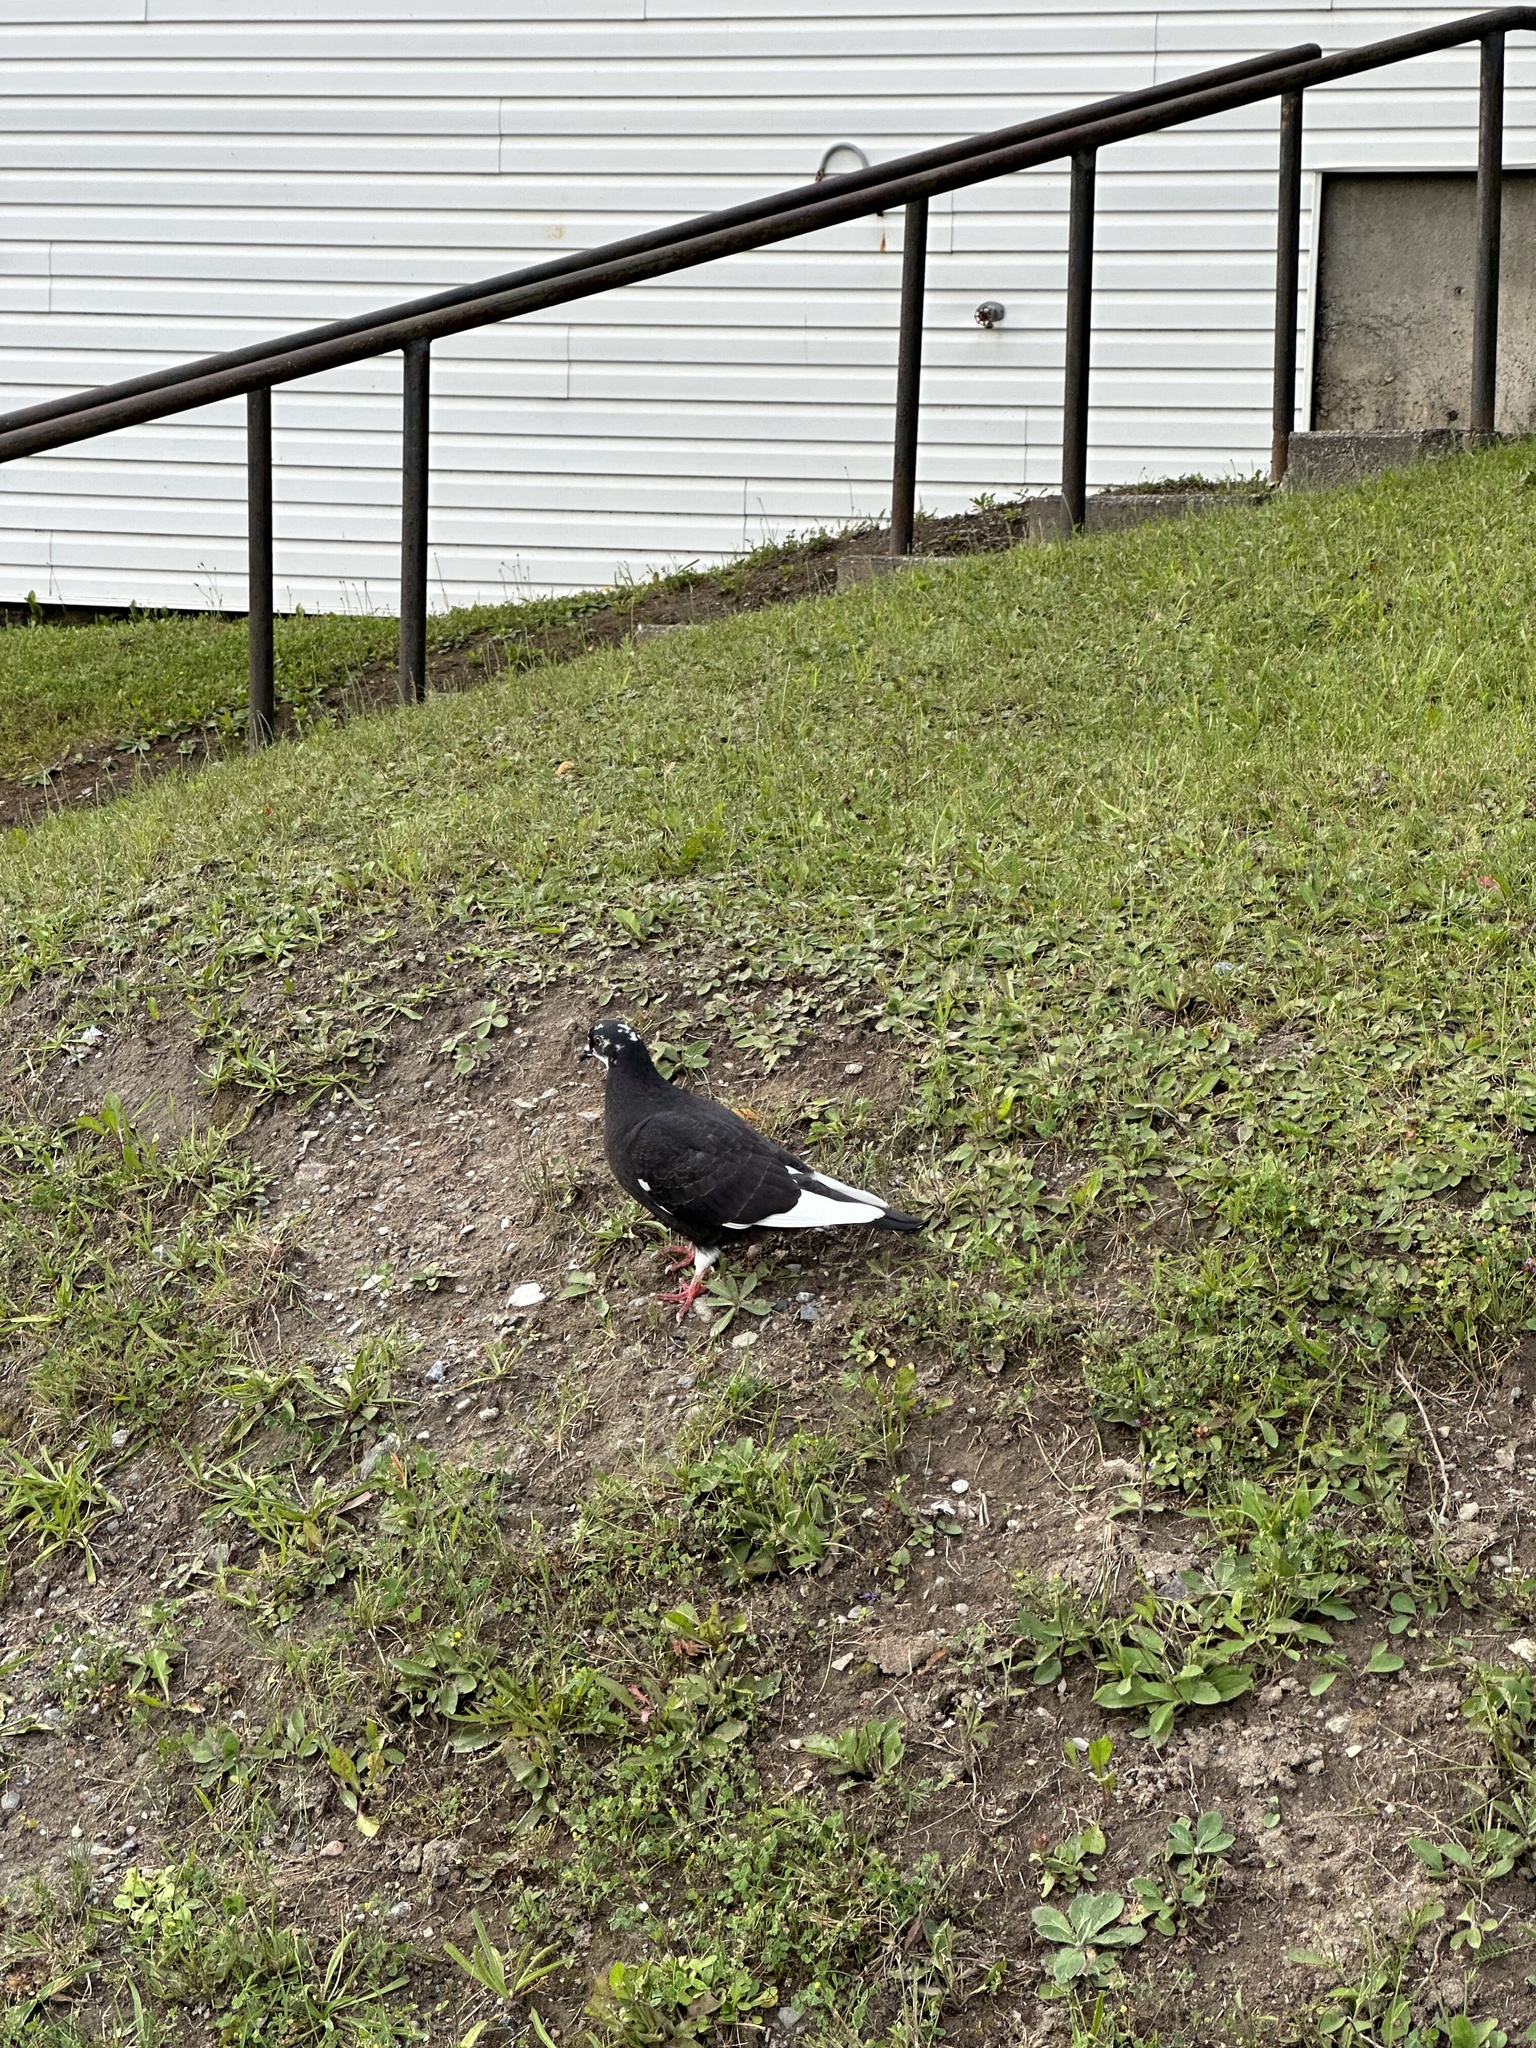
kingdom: Animalia
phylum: Chordata
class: Aves
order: Columbiformes
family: Columbidae
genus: Columba
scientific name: Columba livia
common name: Rock pigeon
